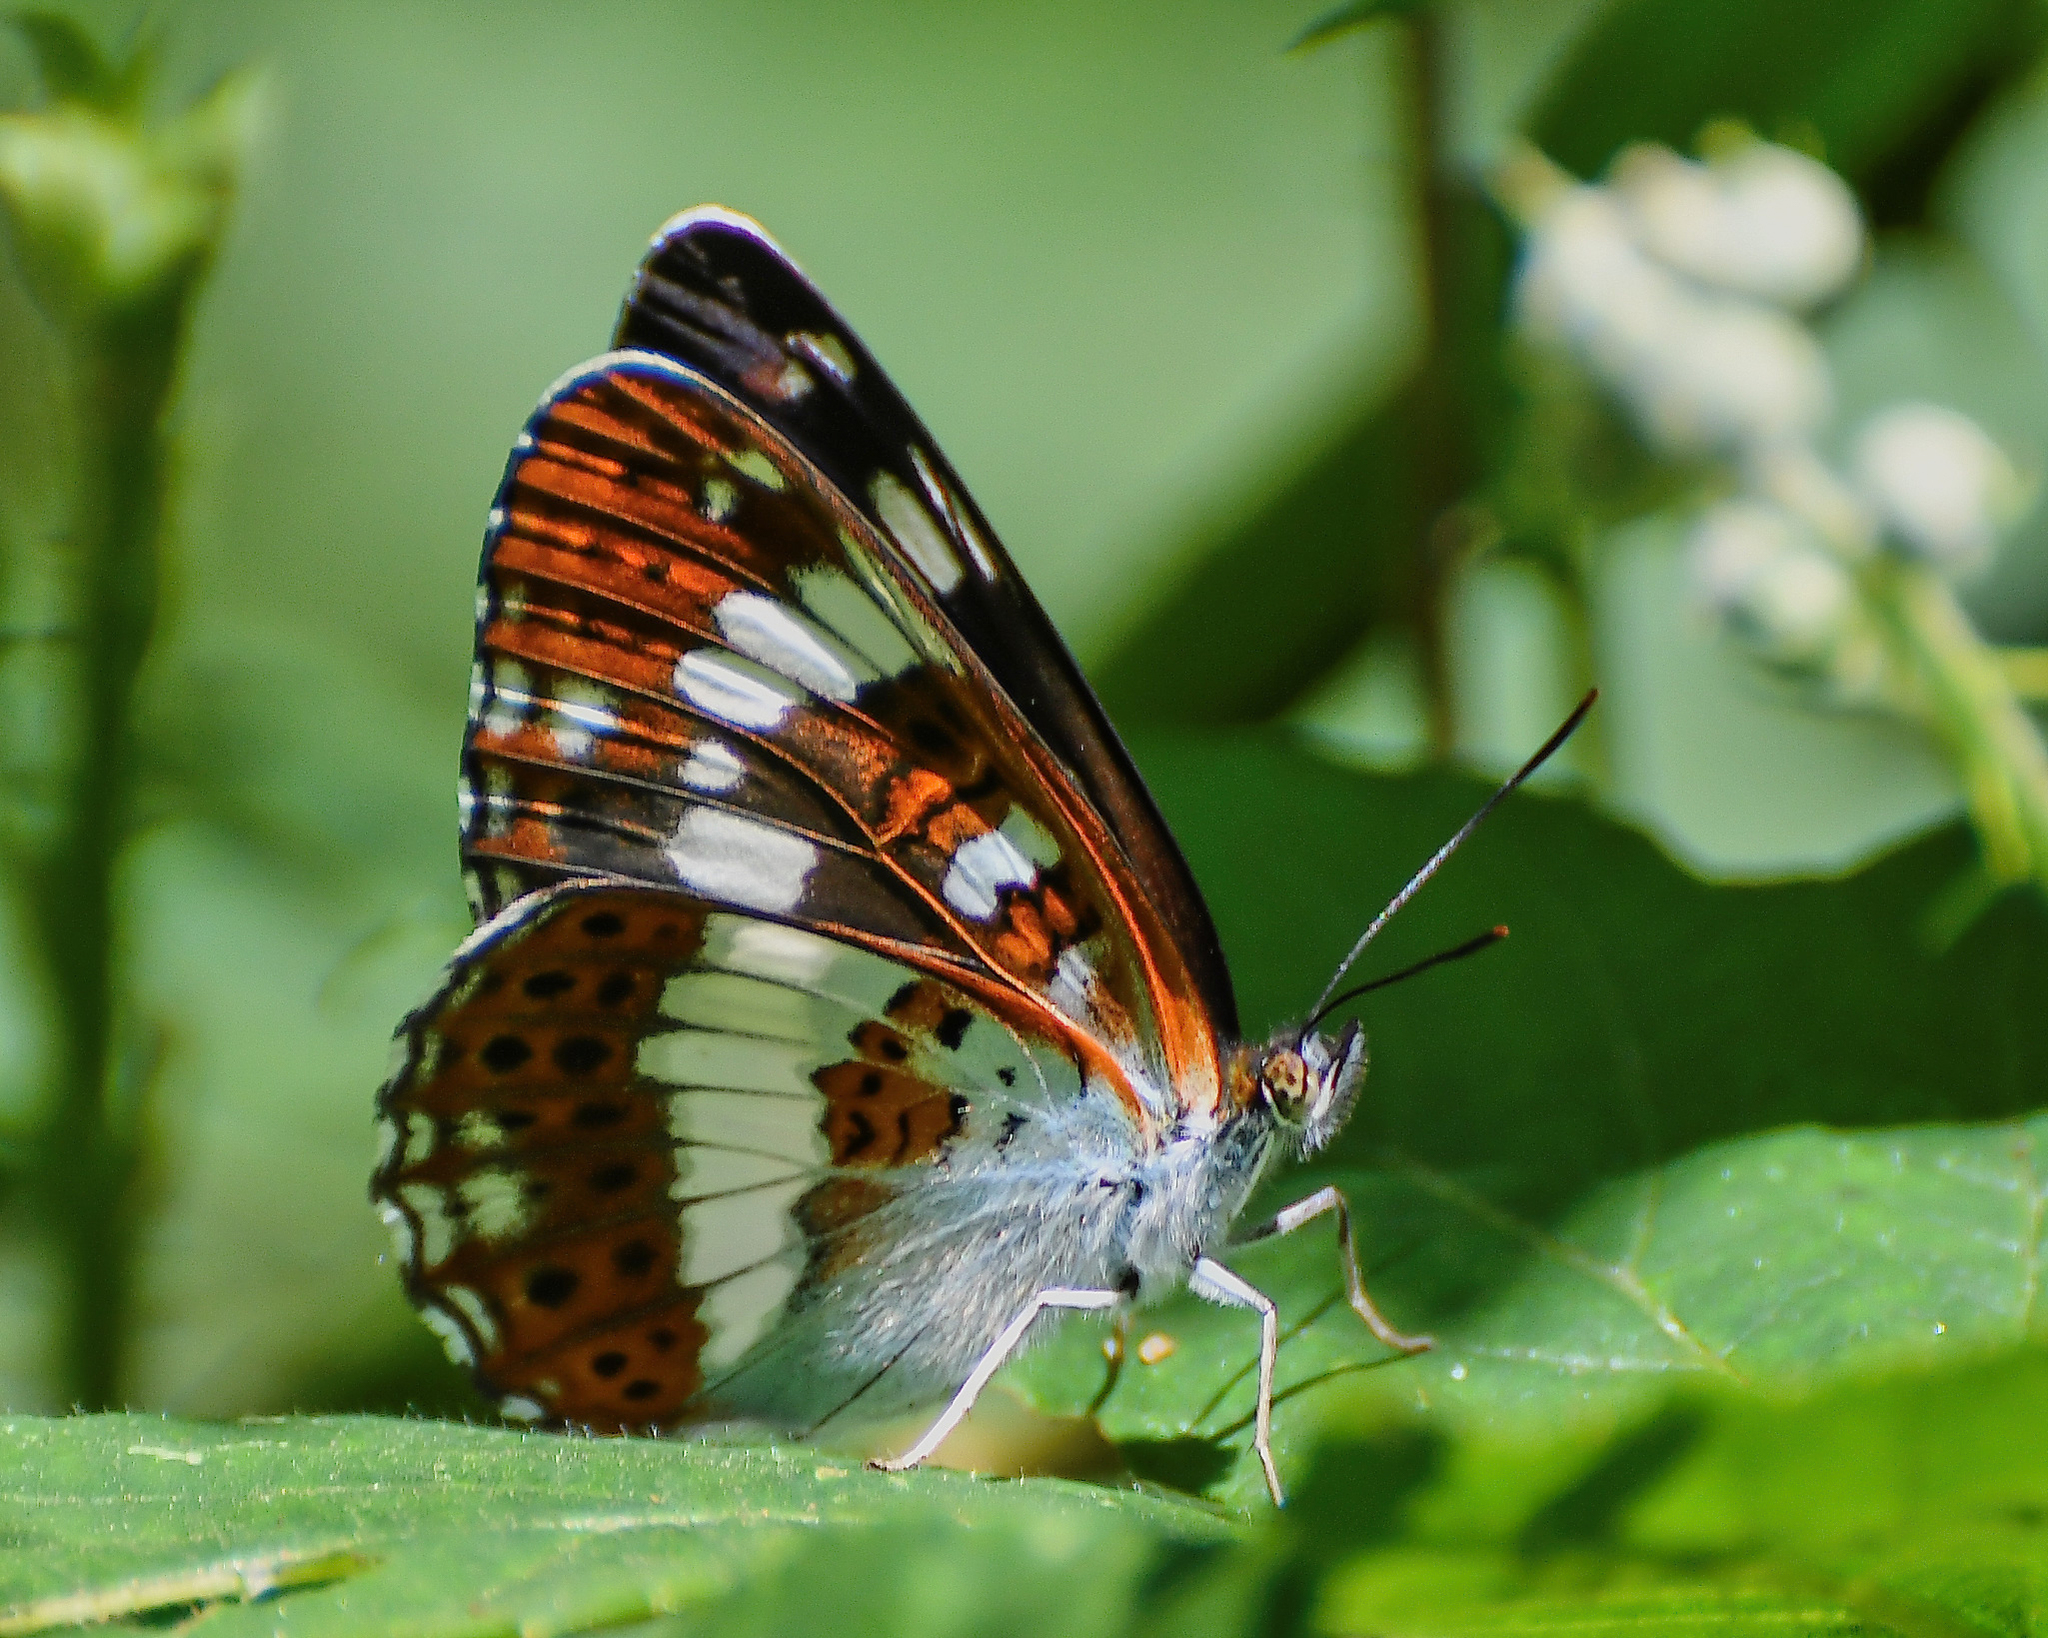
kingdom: Animalia
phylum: Arthropoda
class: Insecta
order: Lepidoptera
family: Nymphalidae
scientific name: Nymphalidae
